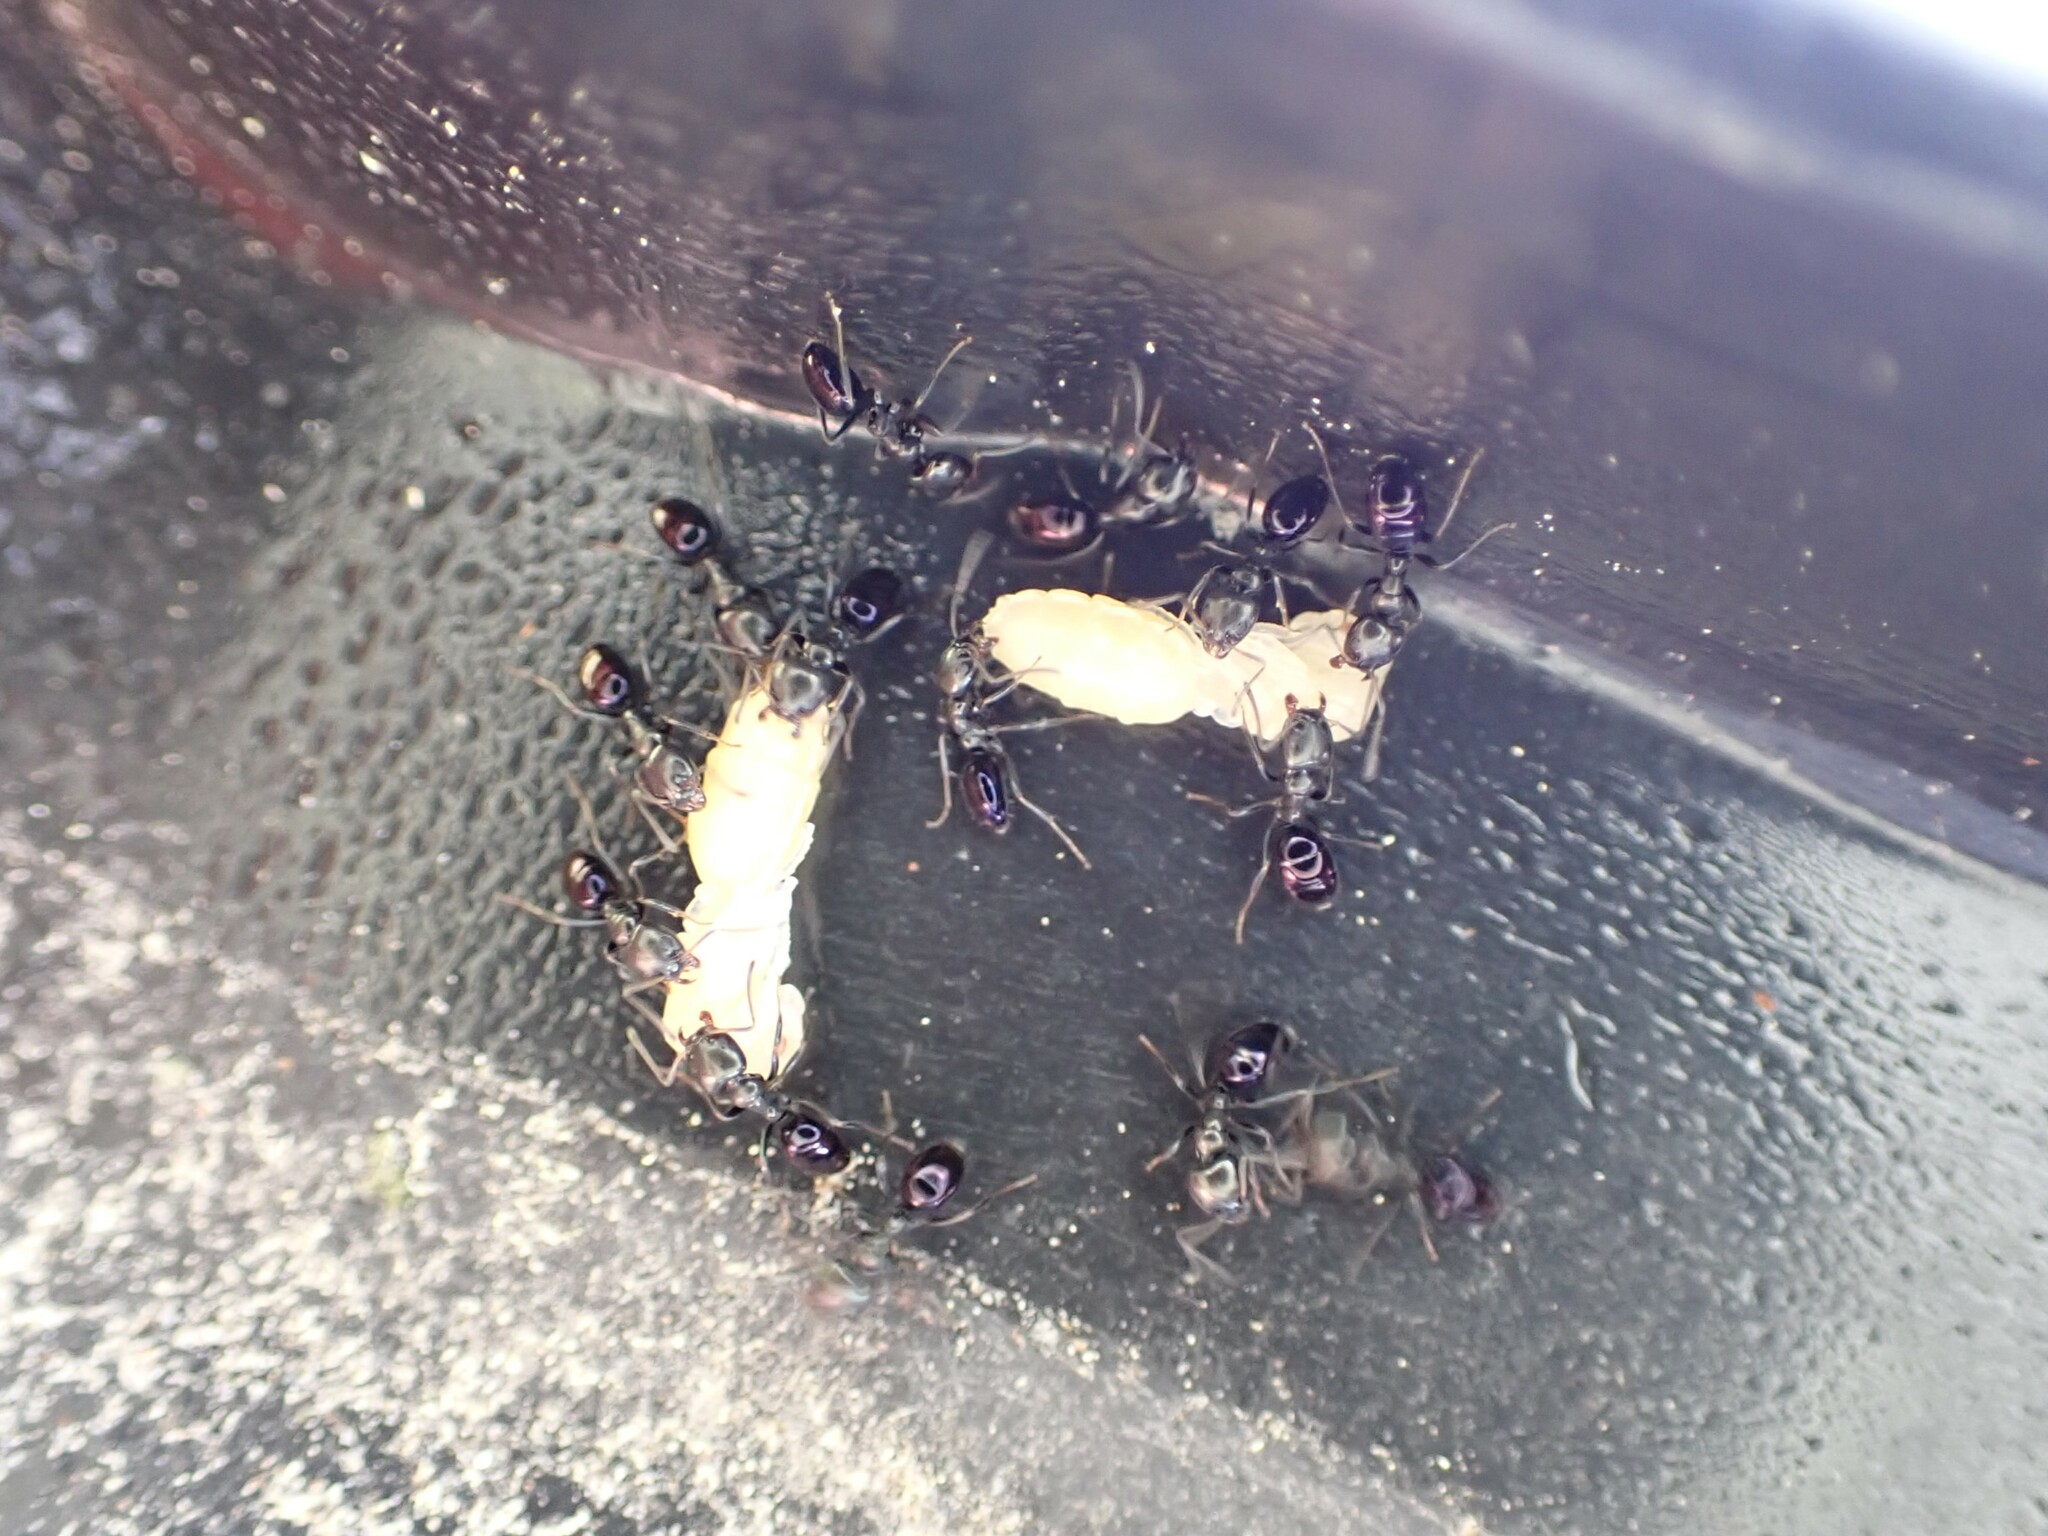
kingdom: Animalia
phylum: Arthropoda
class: Insecta
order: Hymenoptera
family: Formicidae
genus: Ochetellus
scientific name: Ochetellus glaber
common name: Ant
